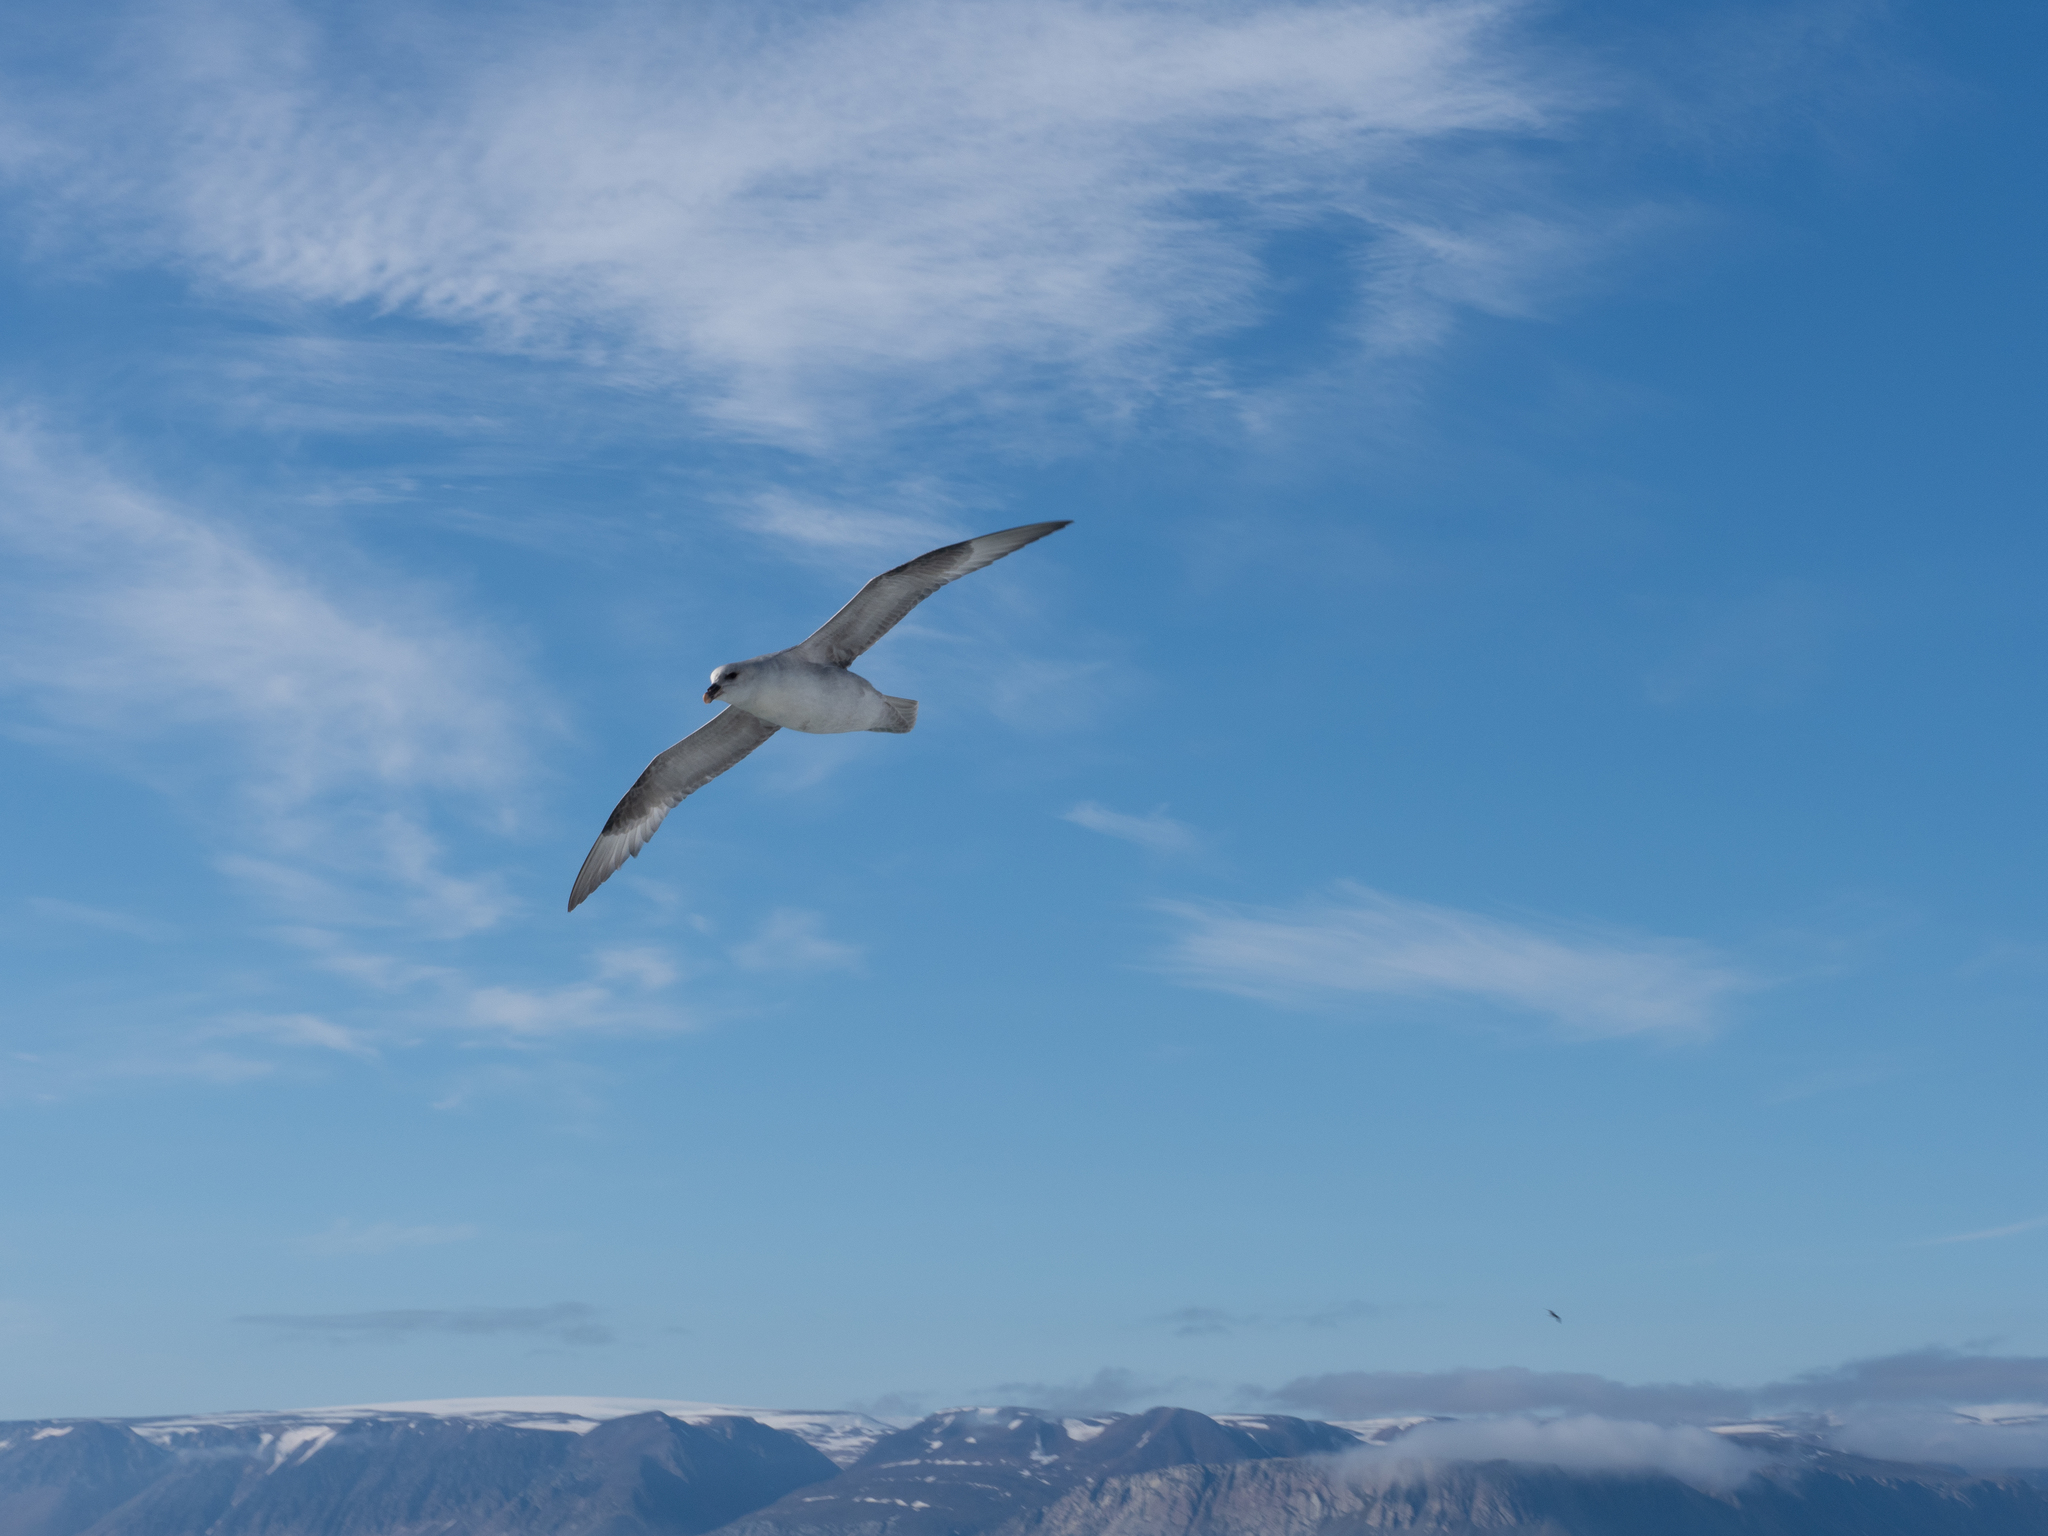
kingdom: Animalia
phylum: Chordata
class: Aves
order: Procellariiformes
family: Procellariidae
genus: Fulmarus
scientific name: Fulmarus glacialis
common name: Northern fulmar
